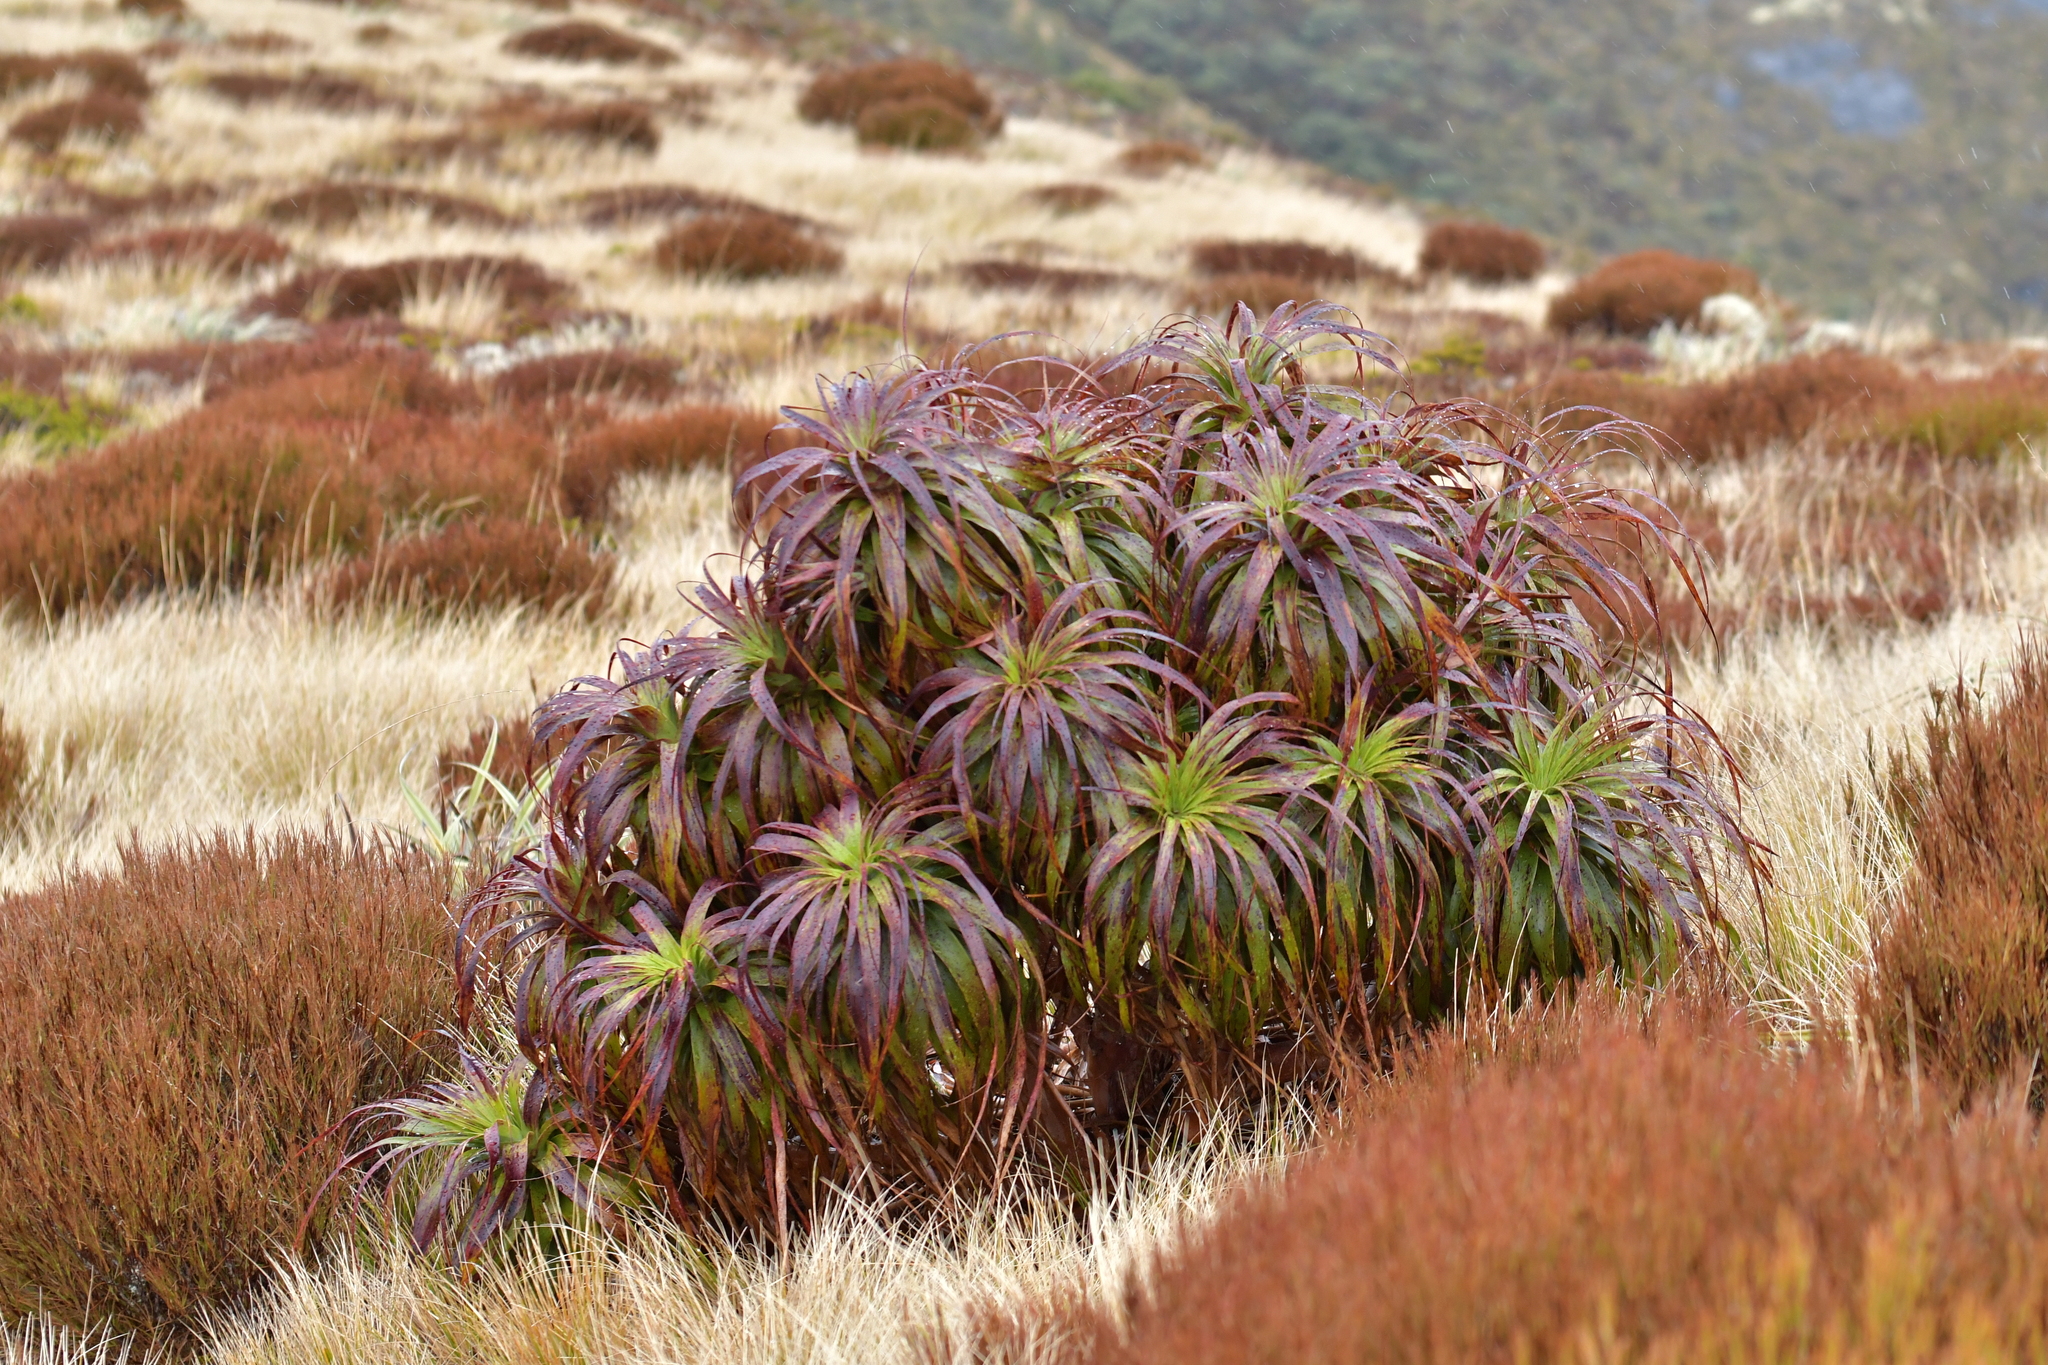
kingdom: Plantae
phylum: Tracheophyta
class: Magnoliopsida
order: Ericales
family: Ericaceae
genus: Dracophyllum
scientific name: Dracophyllum traversii
